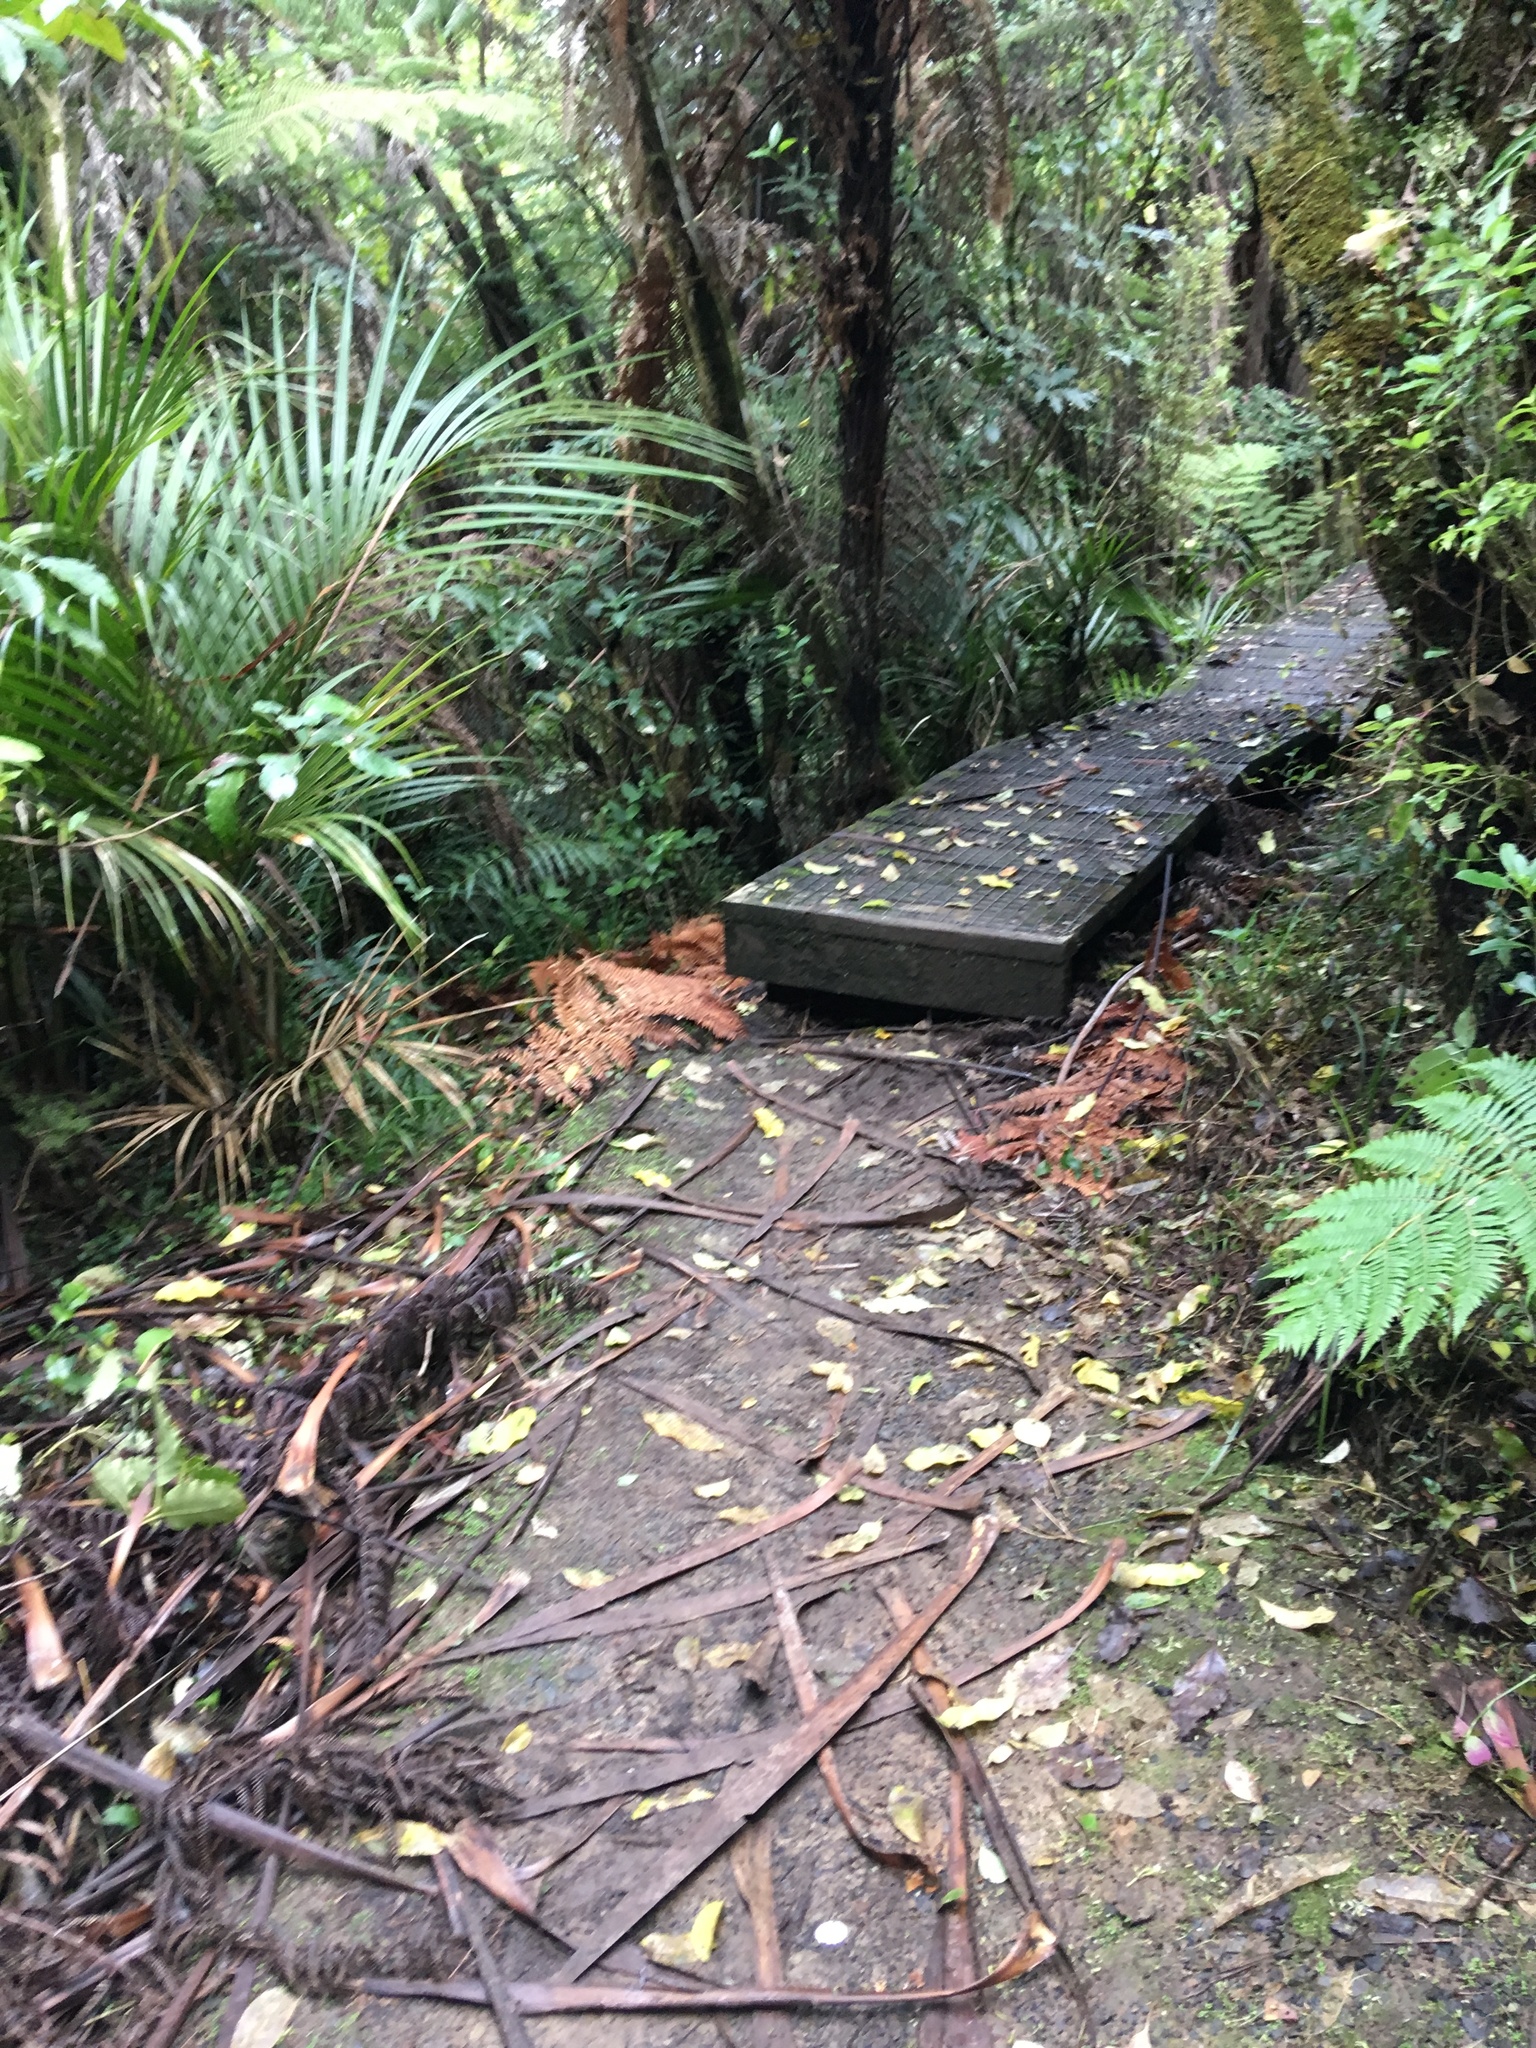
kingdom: Plantae
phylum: Tracheophyta
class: Liliopsida
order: Arecales
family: Arecaceae
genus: Rhopalostylis
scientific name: Rhopalostylis sapida
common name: Feather-duster palm
